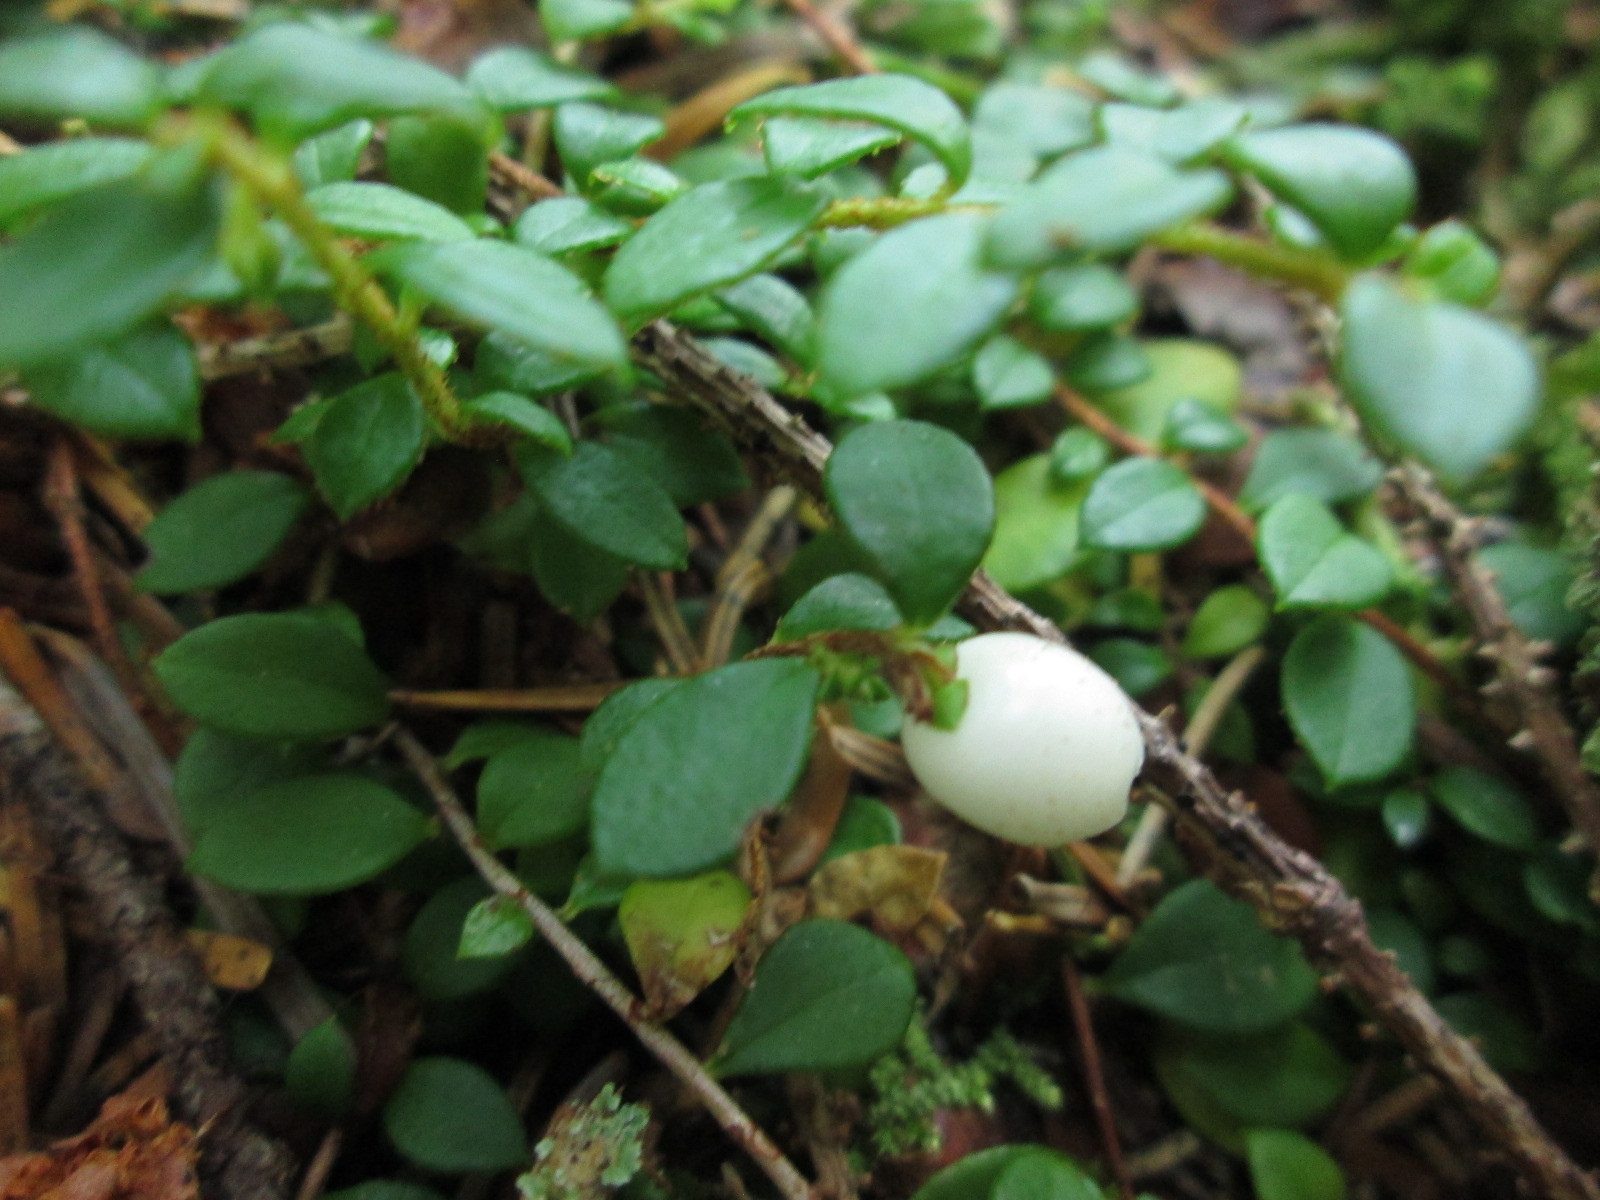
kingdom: Plantae
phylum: Tracheophyta
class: Magnoliopsida
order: Ericales
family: Ericaceae
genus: Gaultheria
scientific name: Gaultheria hispidula
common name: Cancer wintergreen
